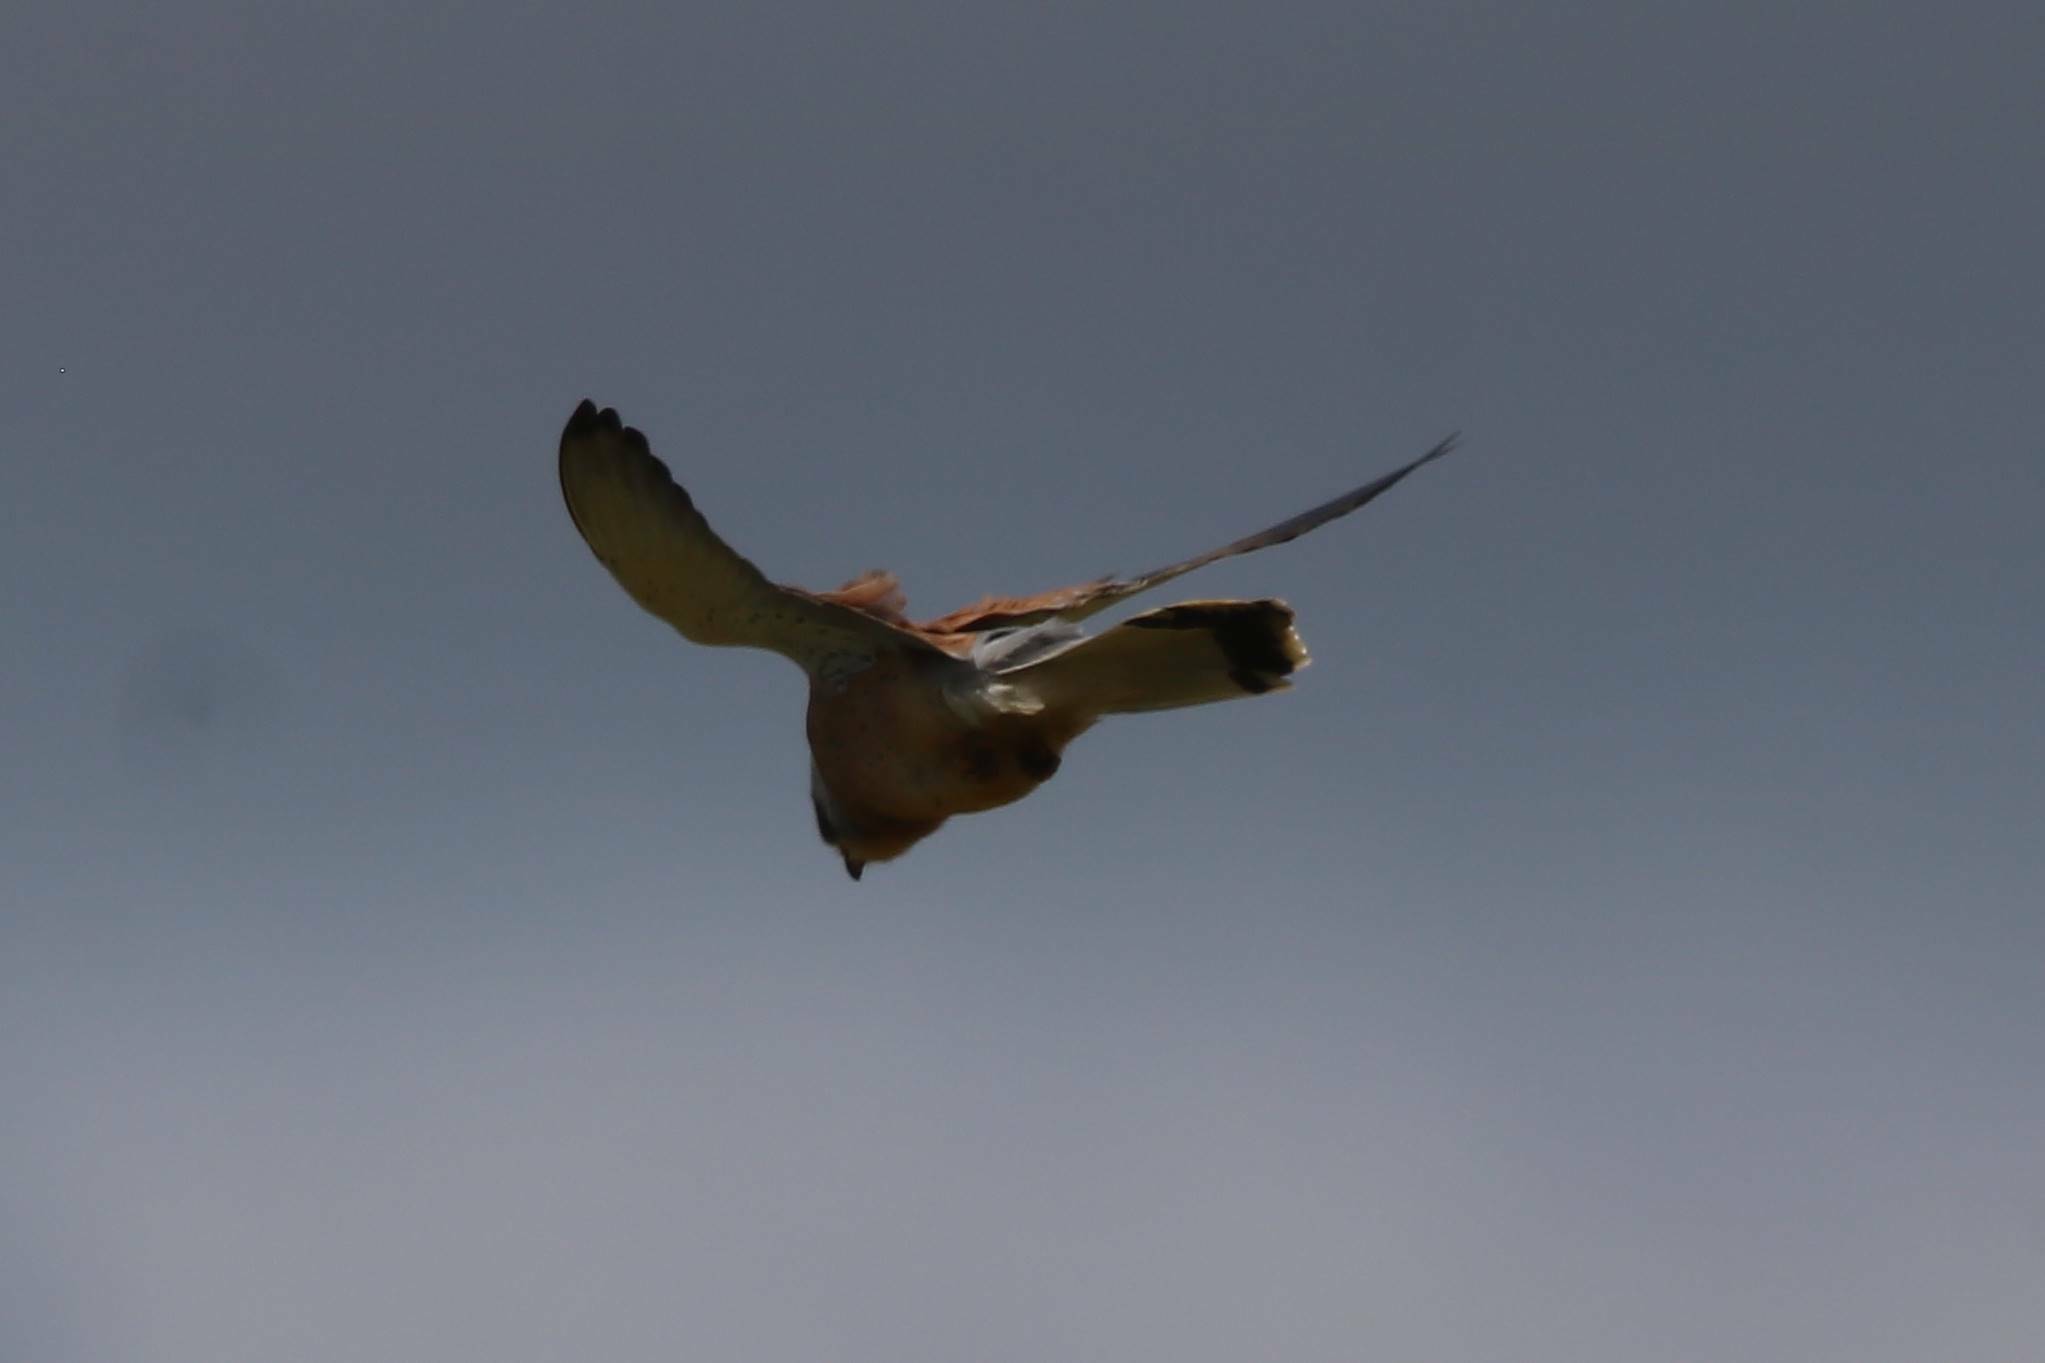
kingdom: Animalia
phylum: Chordata
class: Aves
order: Falconiformes
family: Falconidae
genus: Falco
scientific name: Falco naumanni
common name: Lesser kestrel
